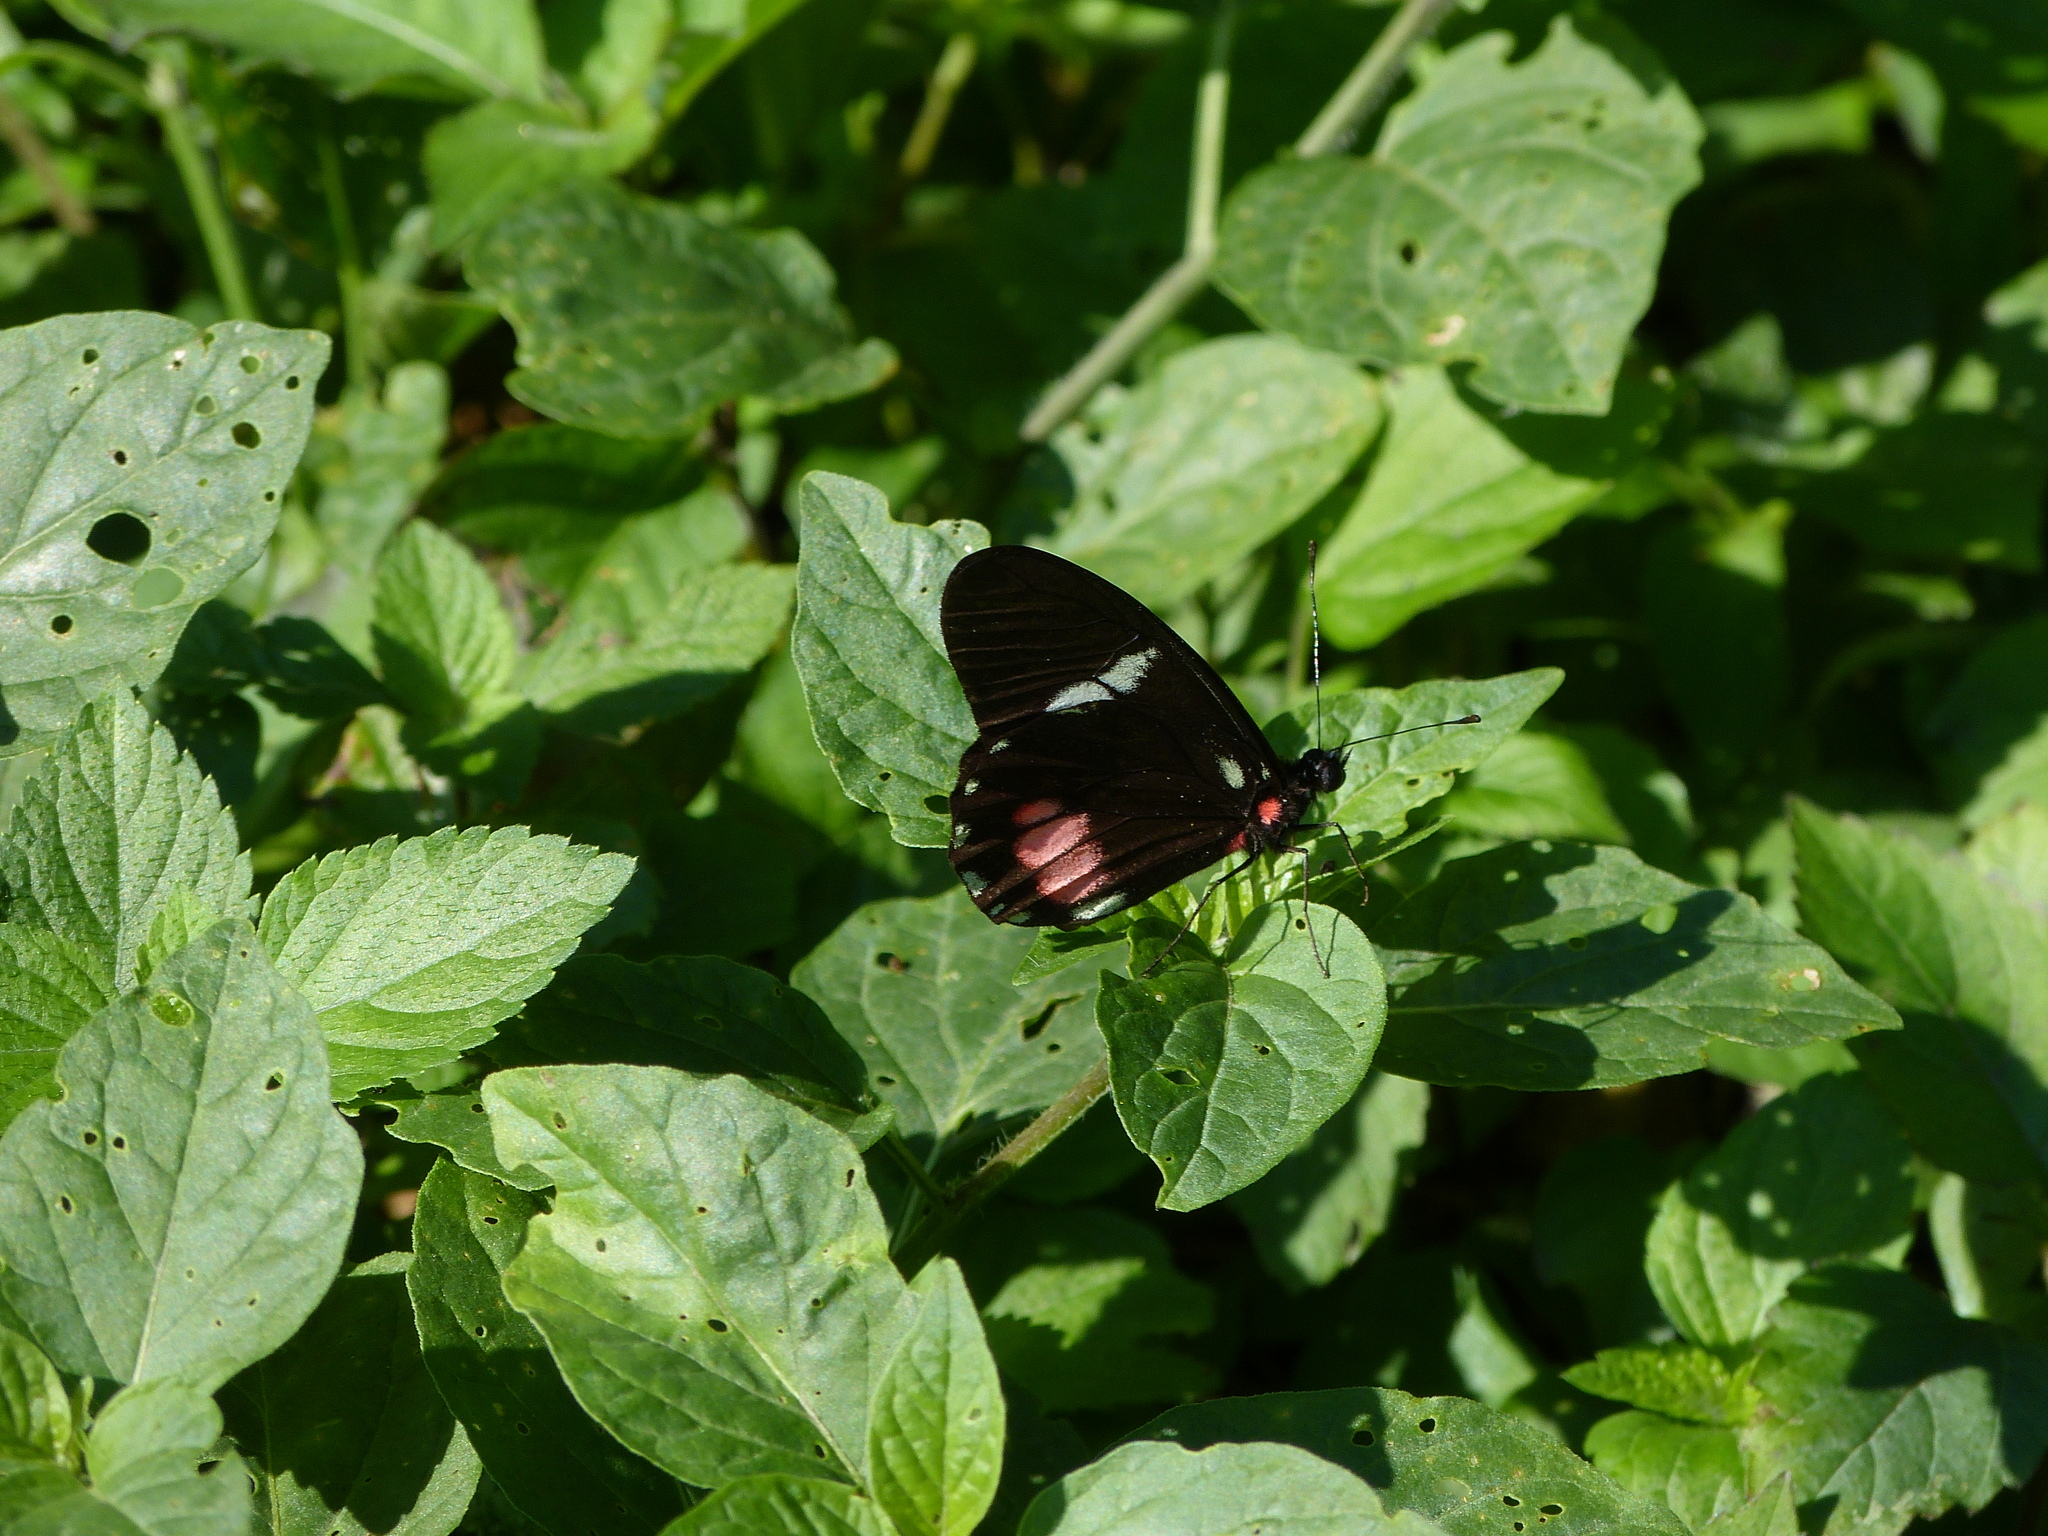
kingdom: Animalia
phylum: Arthropoda
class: Insecta
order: Lepidoptera
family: Pieridae
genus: Archonias
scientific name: Archonias brassolis
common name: Cattleheart white
